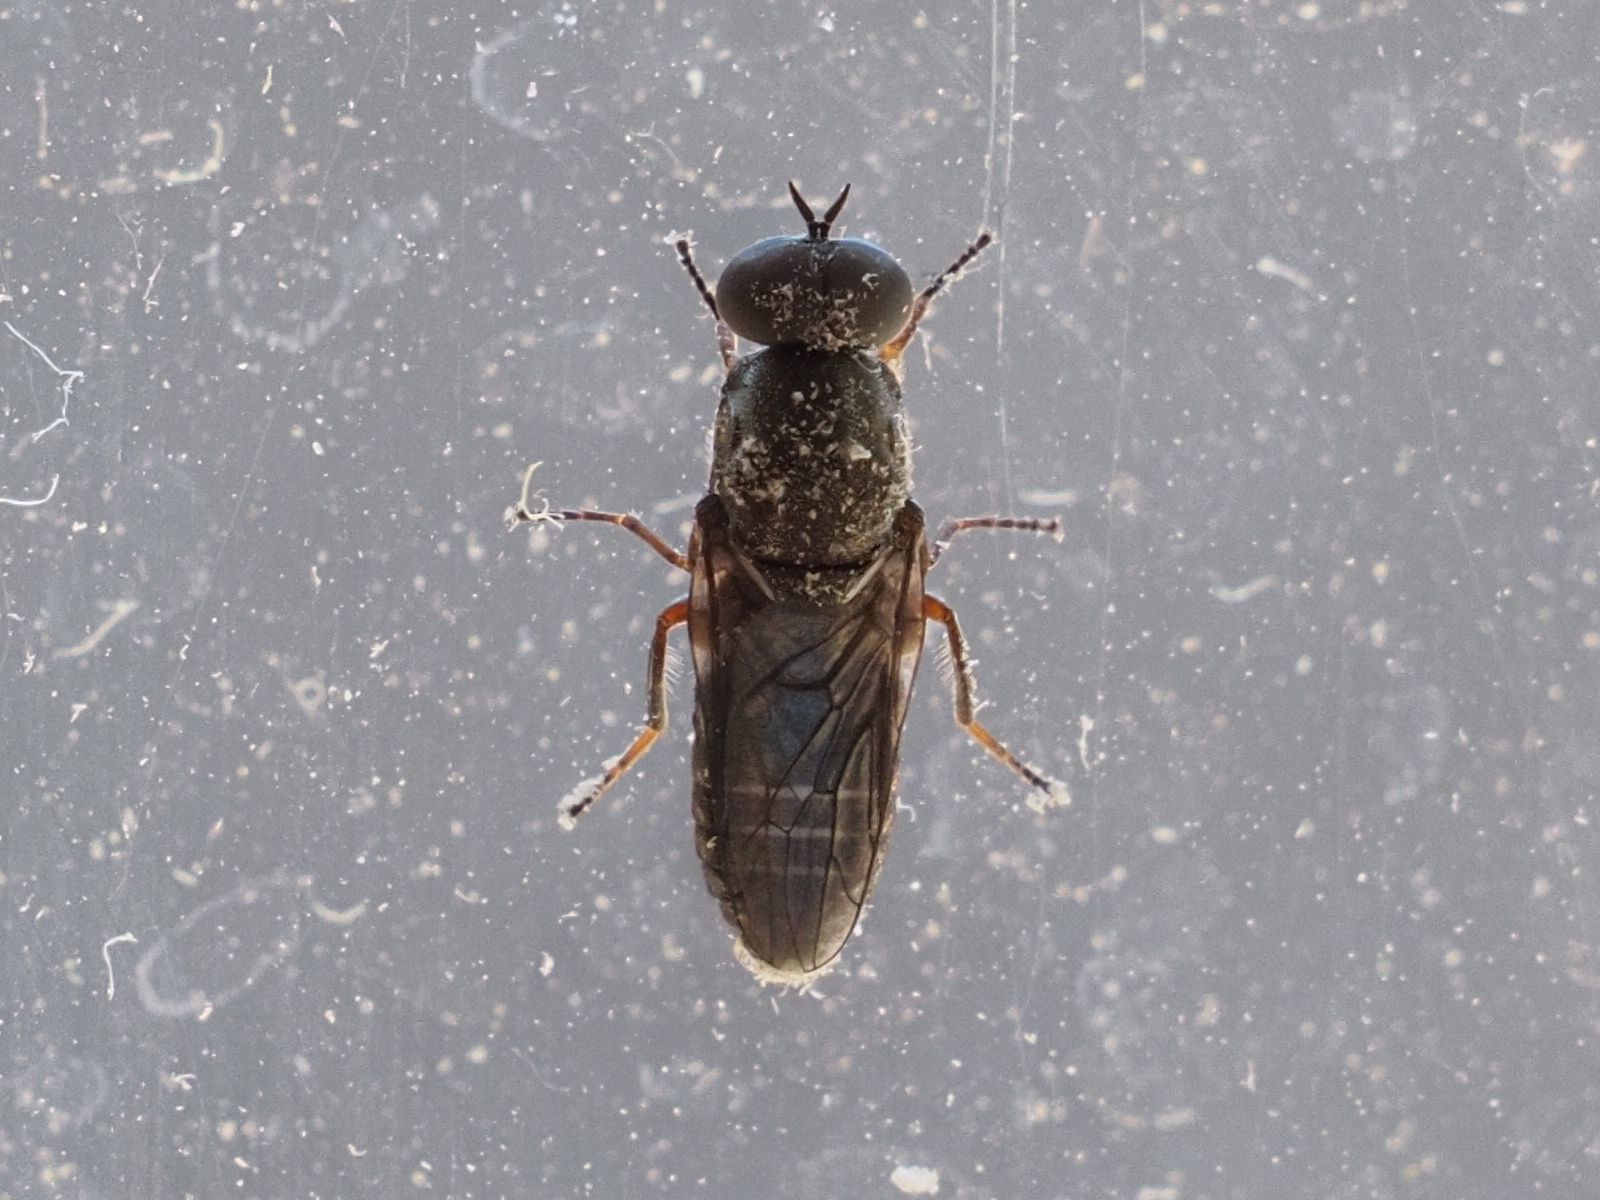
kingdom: Animalia
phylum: Arthropoda
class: Insecta
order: Diptera
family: Scenopinidae
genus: Scenopinus
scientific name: Scenopinus fenestralis
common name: House windowfly
